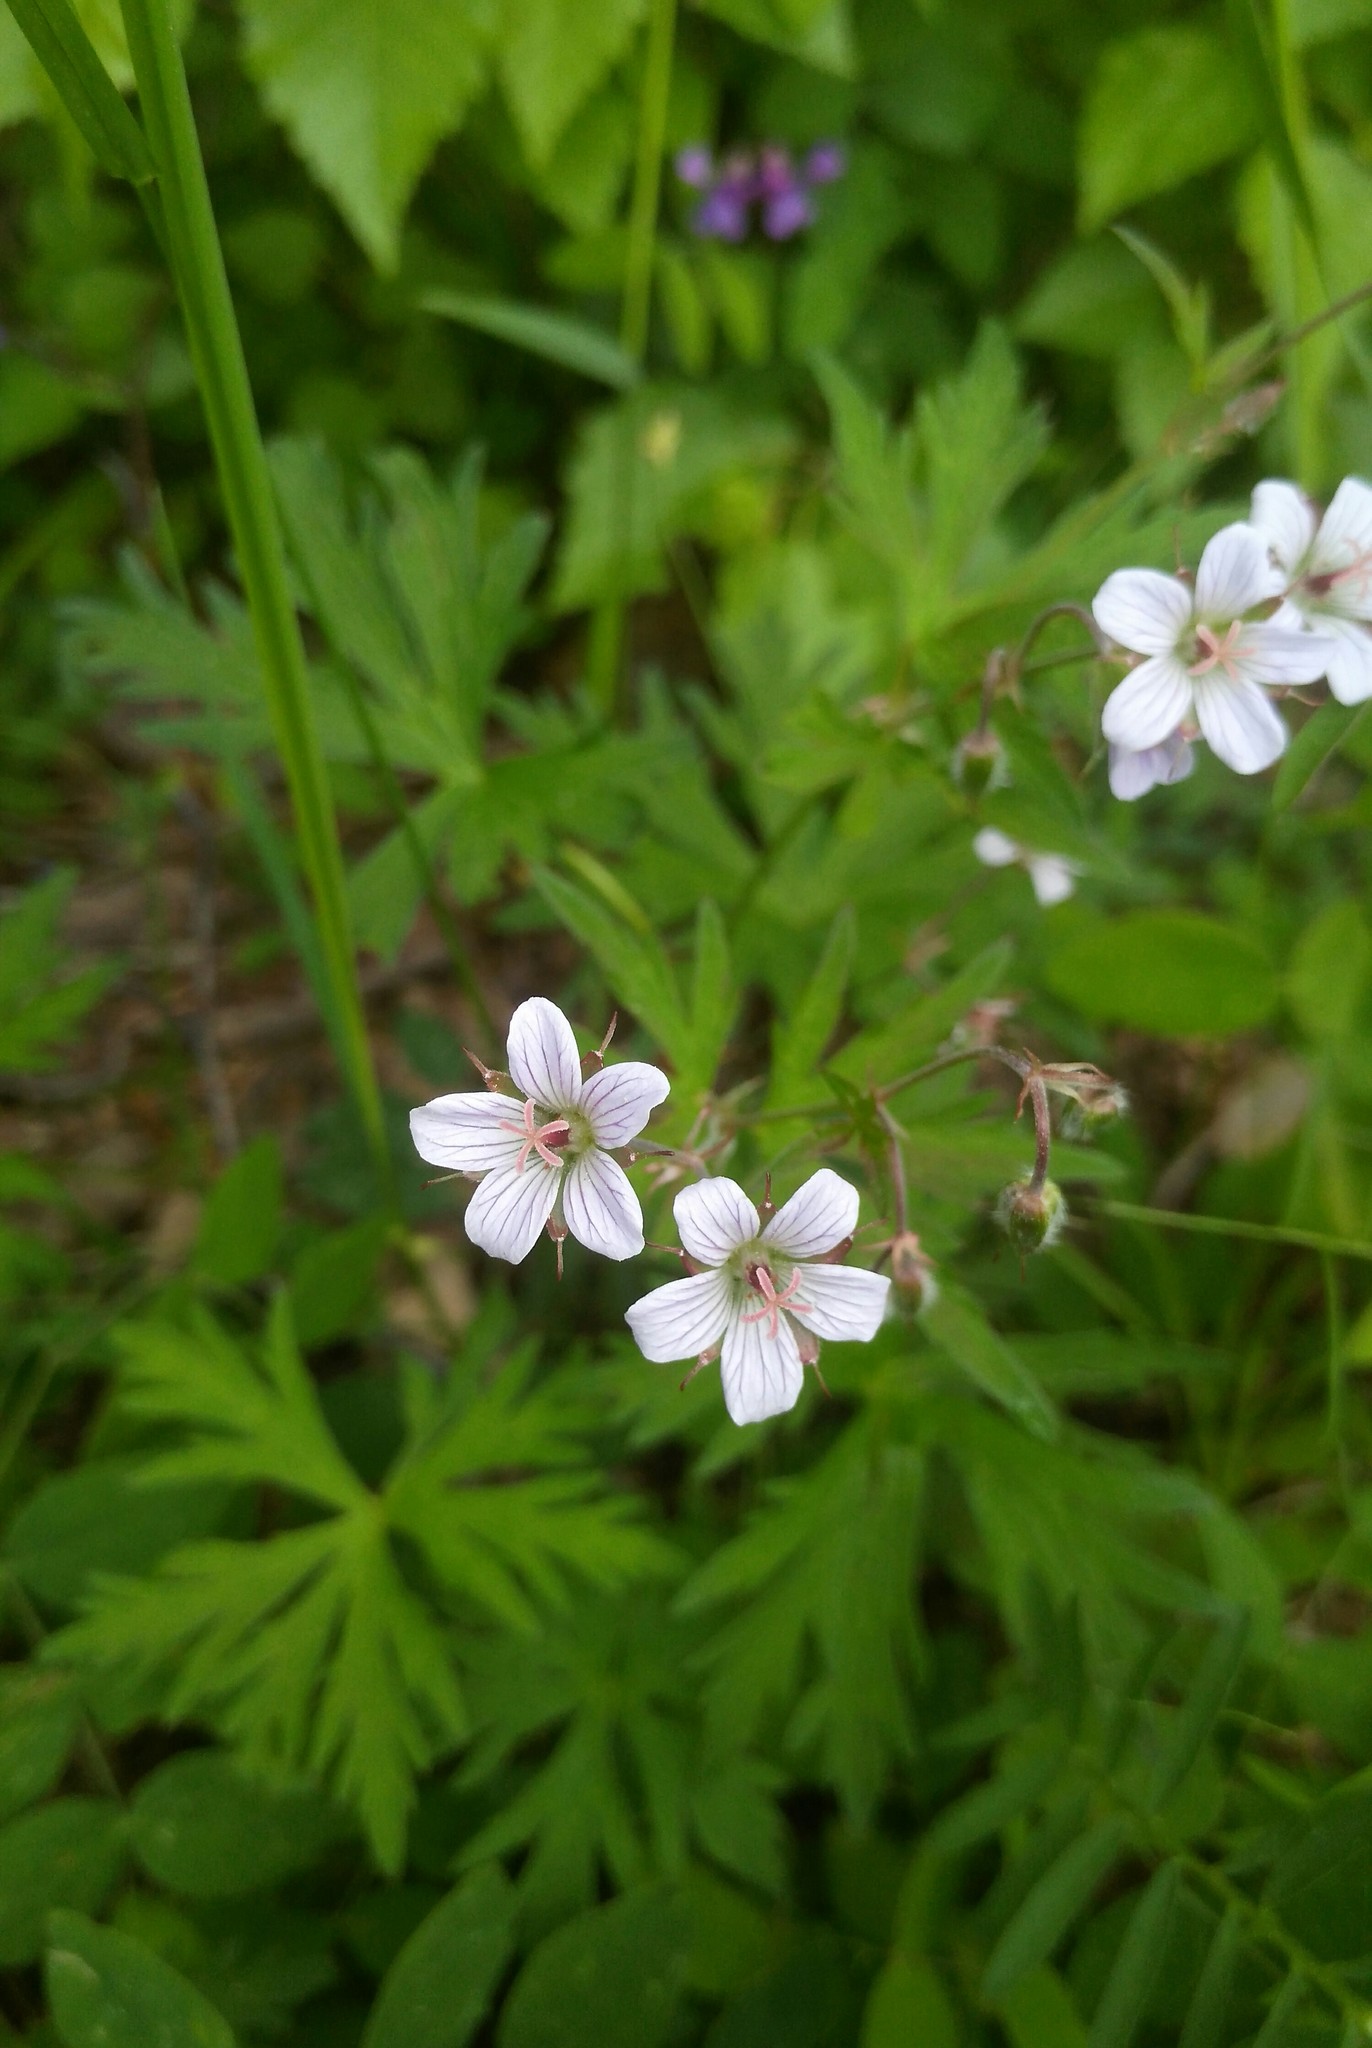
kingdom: Plantae
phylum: Tracheophyta
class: Magnoliopsida
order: Geraniales
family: Geraniaceae
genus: Geranium
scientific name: Geranium sylvaticum
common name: Wood crane's-bill
